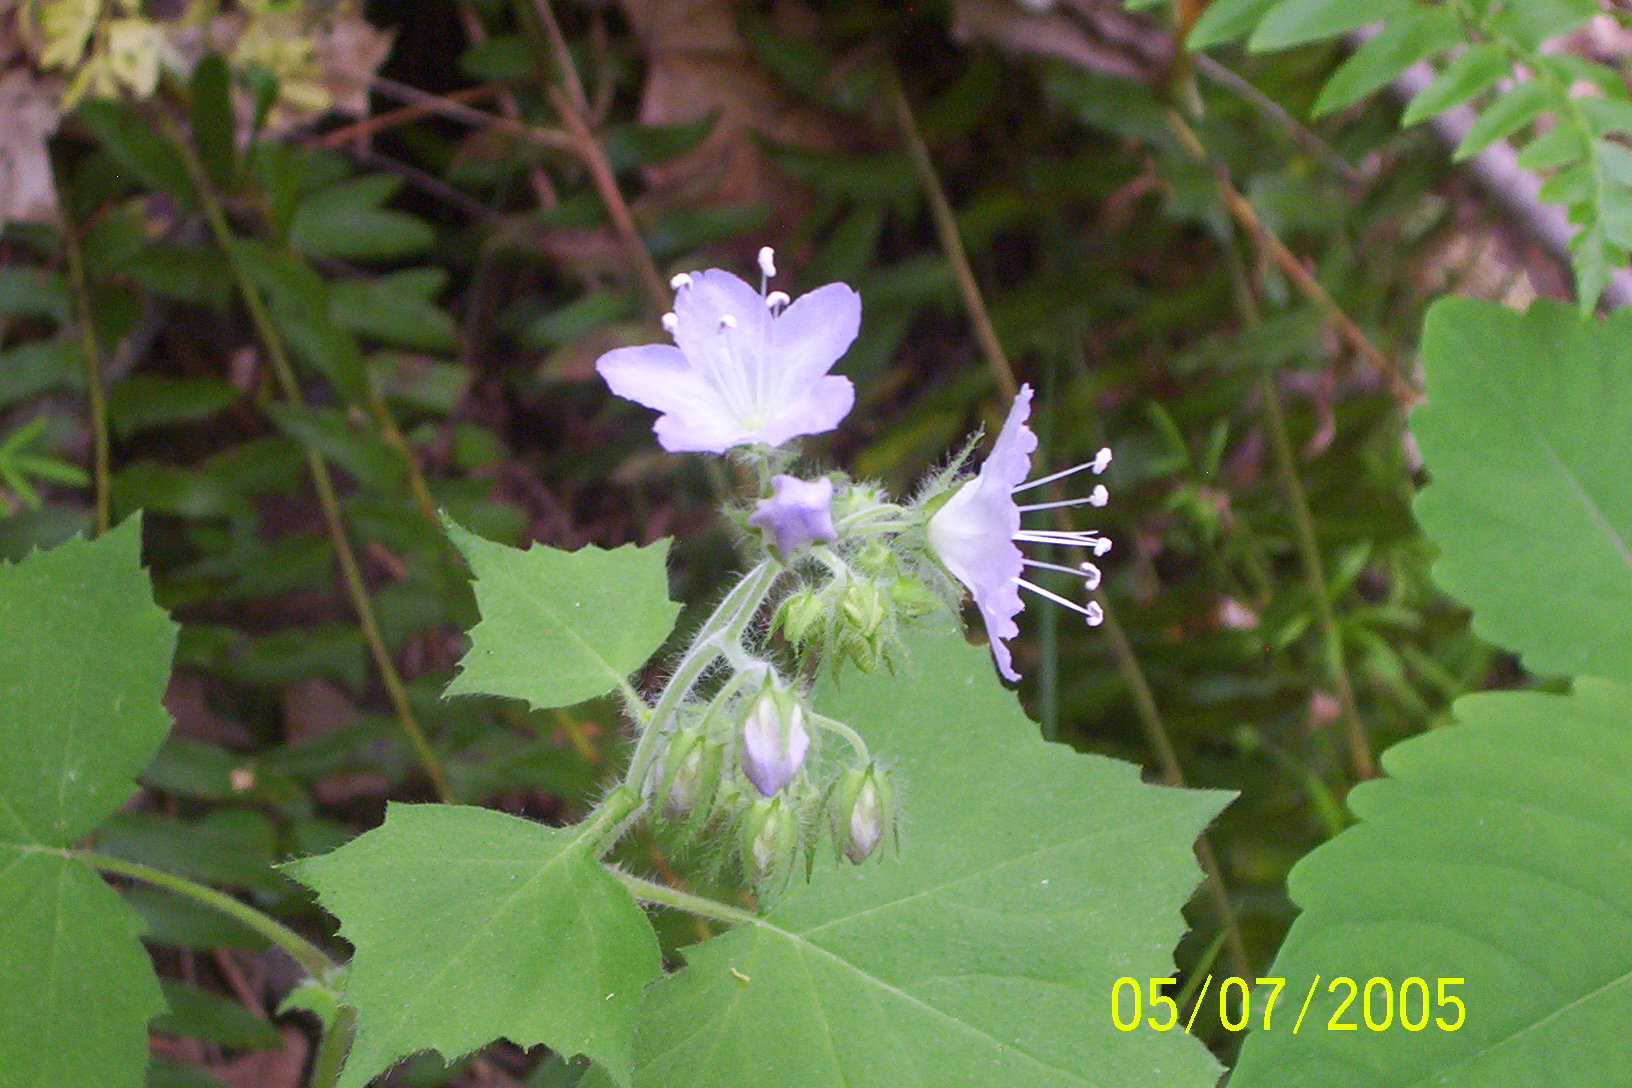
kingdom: Plantae
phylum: Tracheophyta
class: Magnoliopsida
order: Boraginales
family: Hydrophyllaceae
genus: Hydrophyllum
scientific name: Hydrophyllum appendiculatum
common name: Appendaged waterleaf
